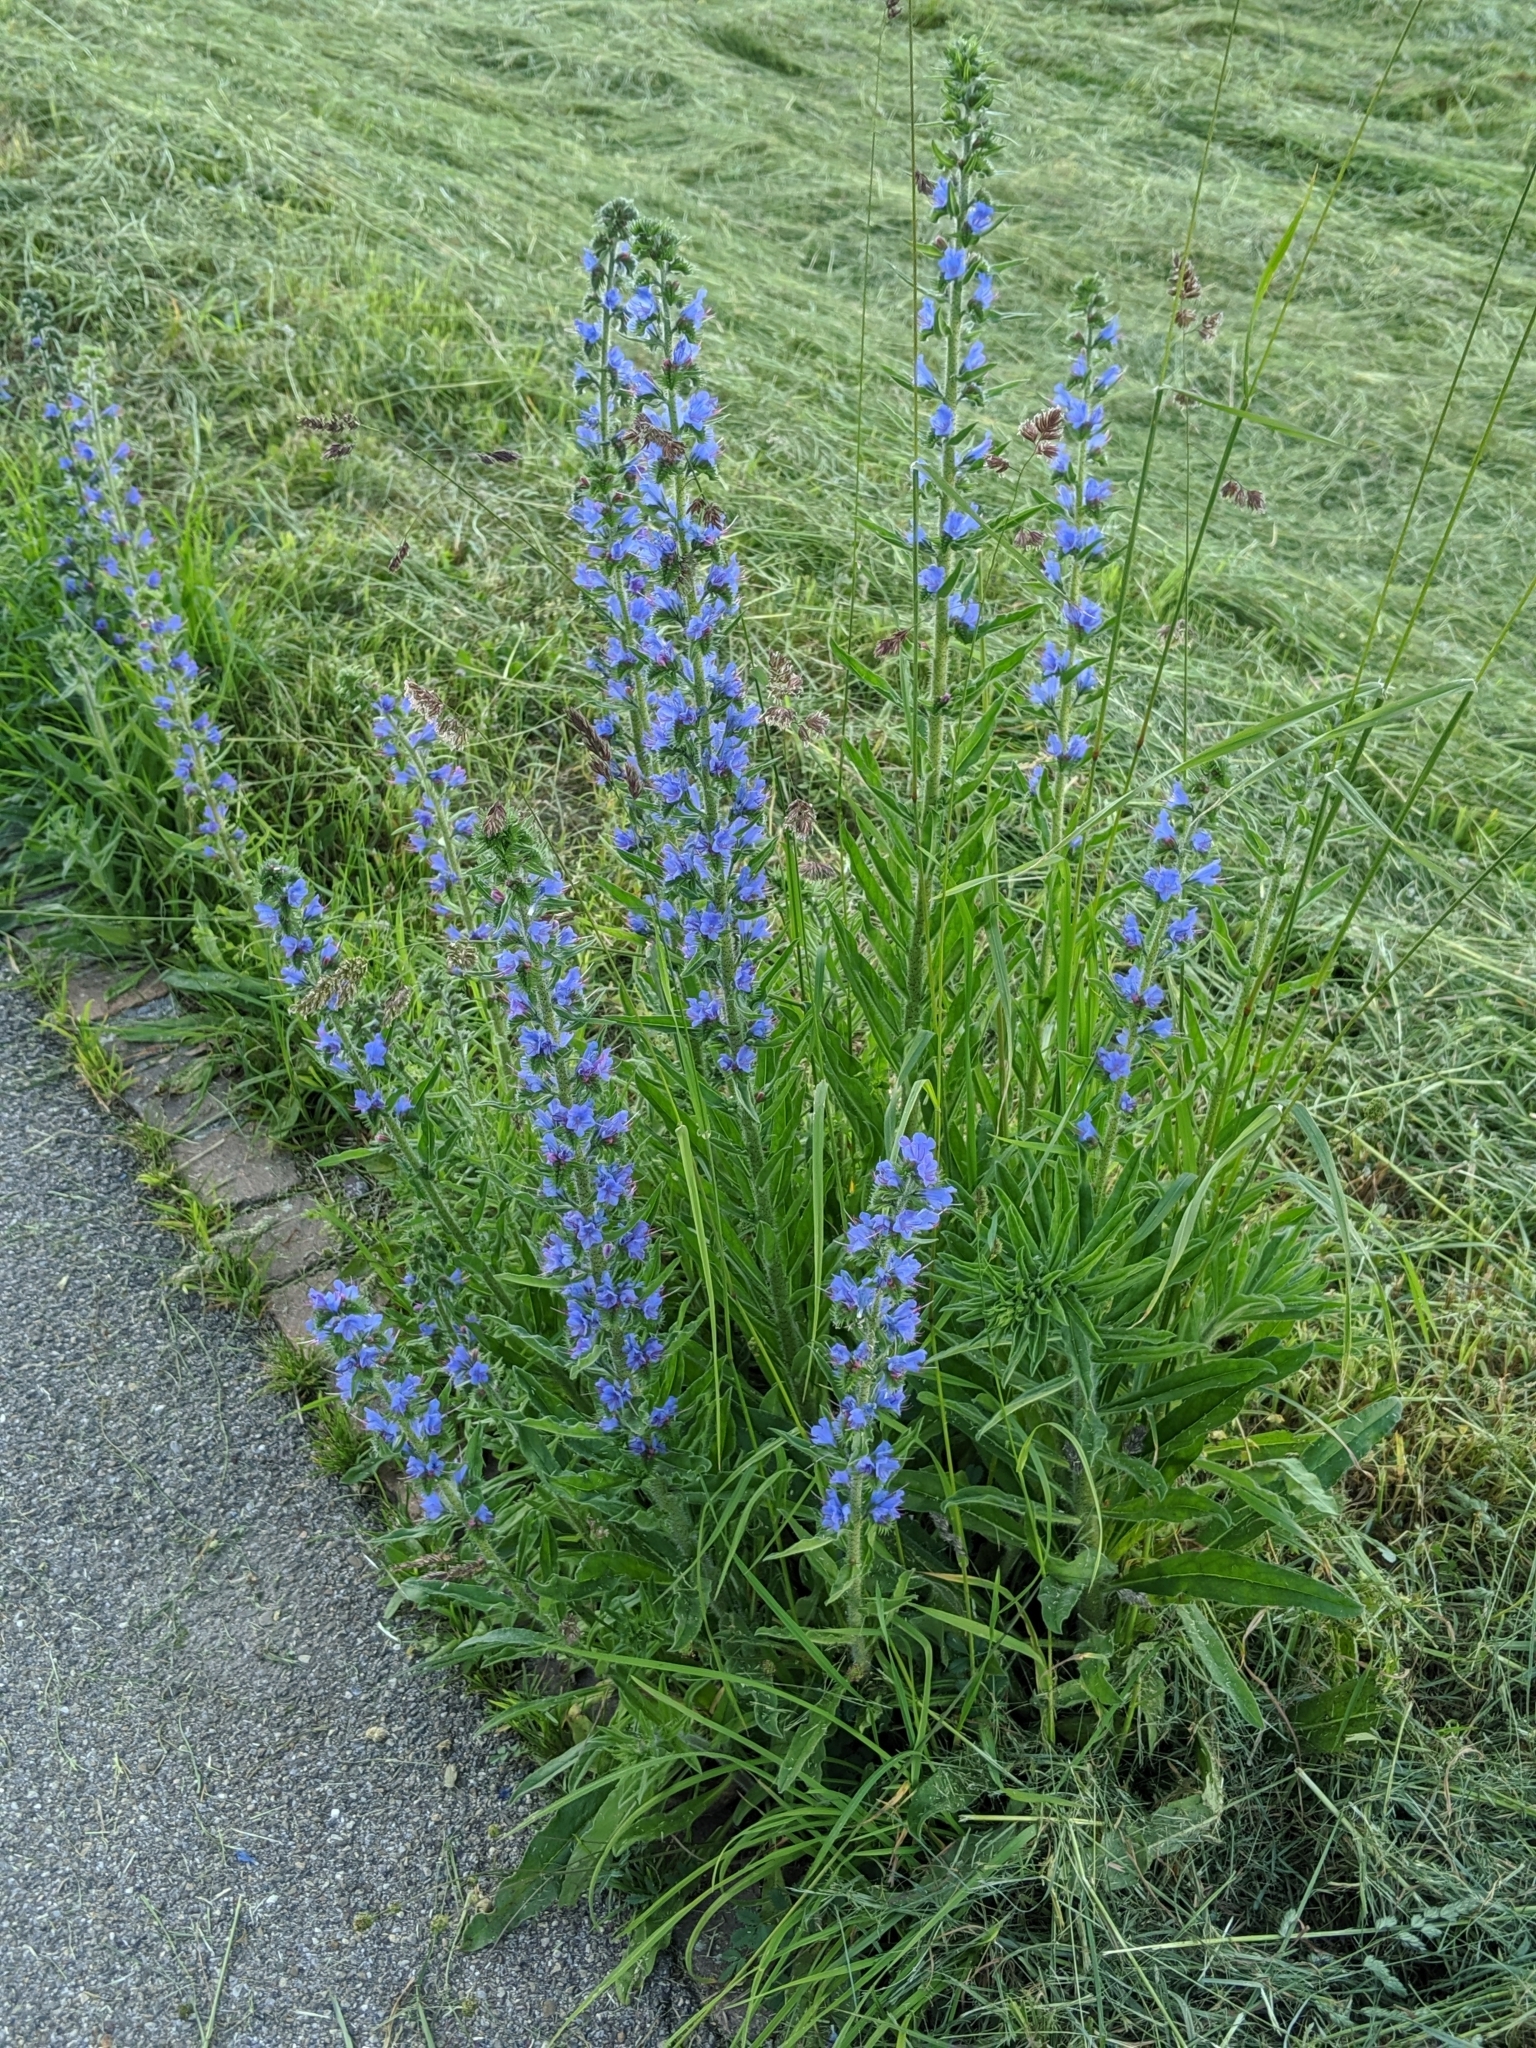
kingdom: Plantae
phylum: Tracheophyta
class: Magnoliopsida
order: Boraginales
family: Boraginaceae
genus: Echium
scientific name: Echium vulgare
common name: Common viper's bugloss
